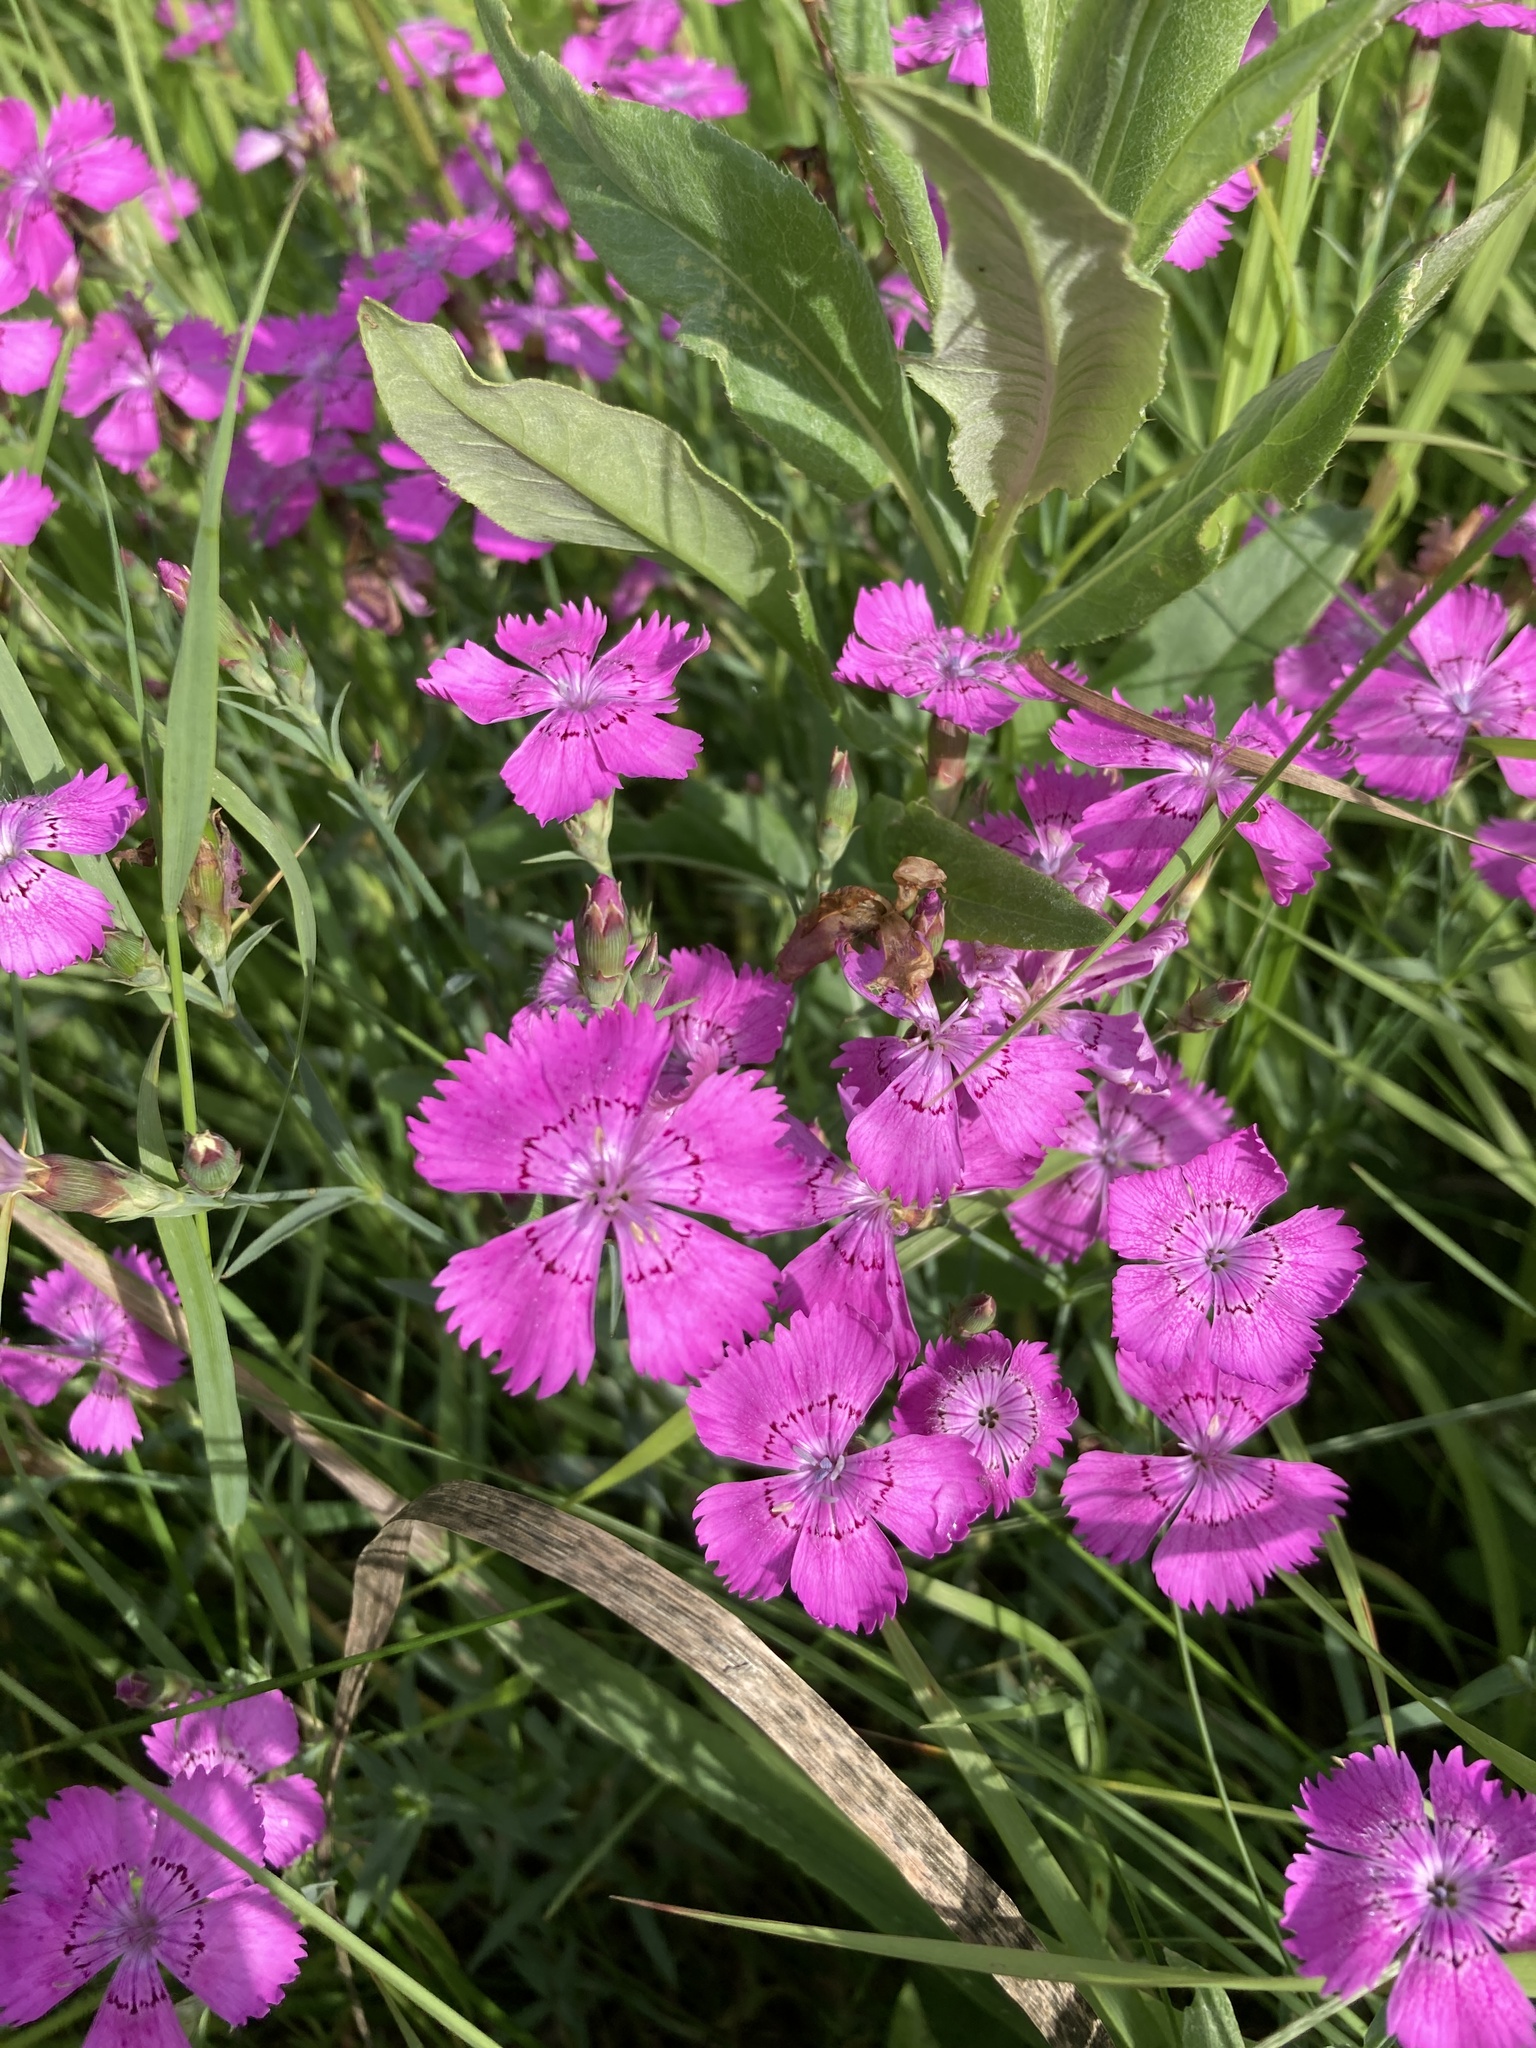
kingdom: Plantae
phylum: Tracheophyta
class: Magnoliopsida
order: Caryophyllales
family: Caryophyllaceae
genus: Dianthus
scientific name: Dianthus chinensis
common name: Rainbow pink
